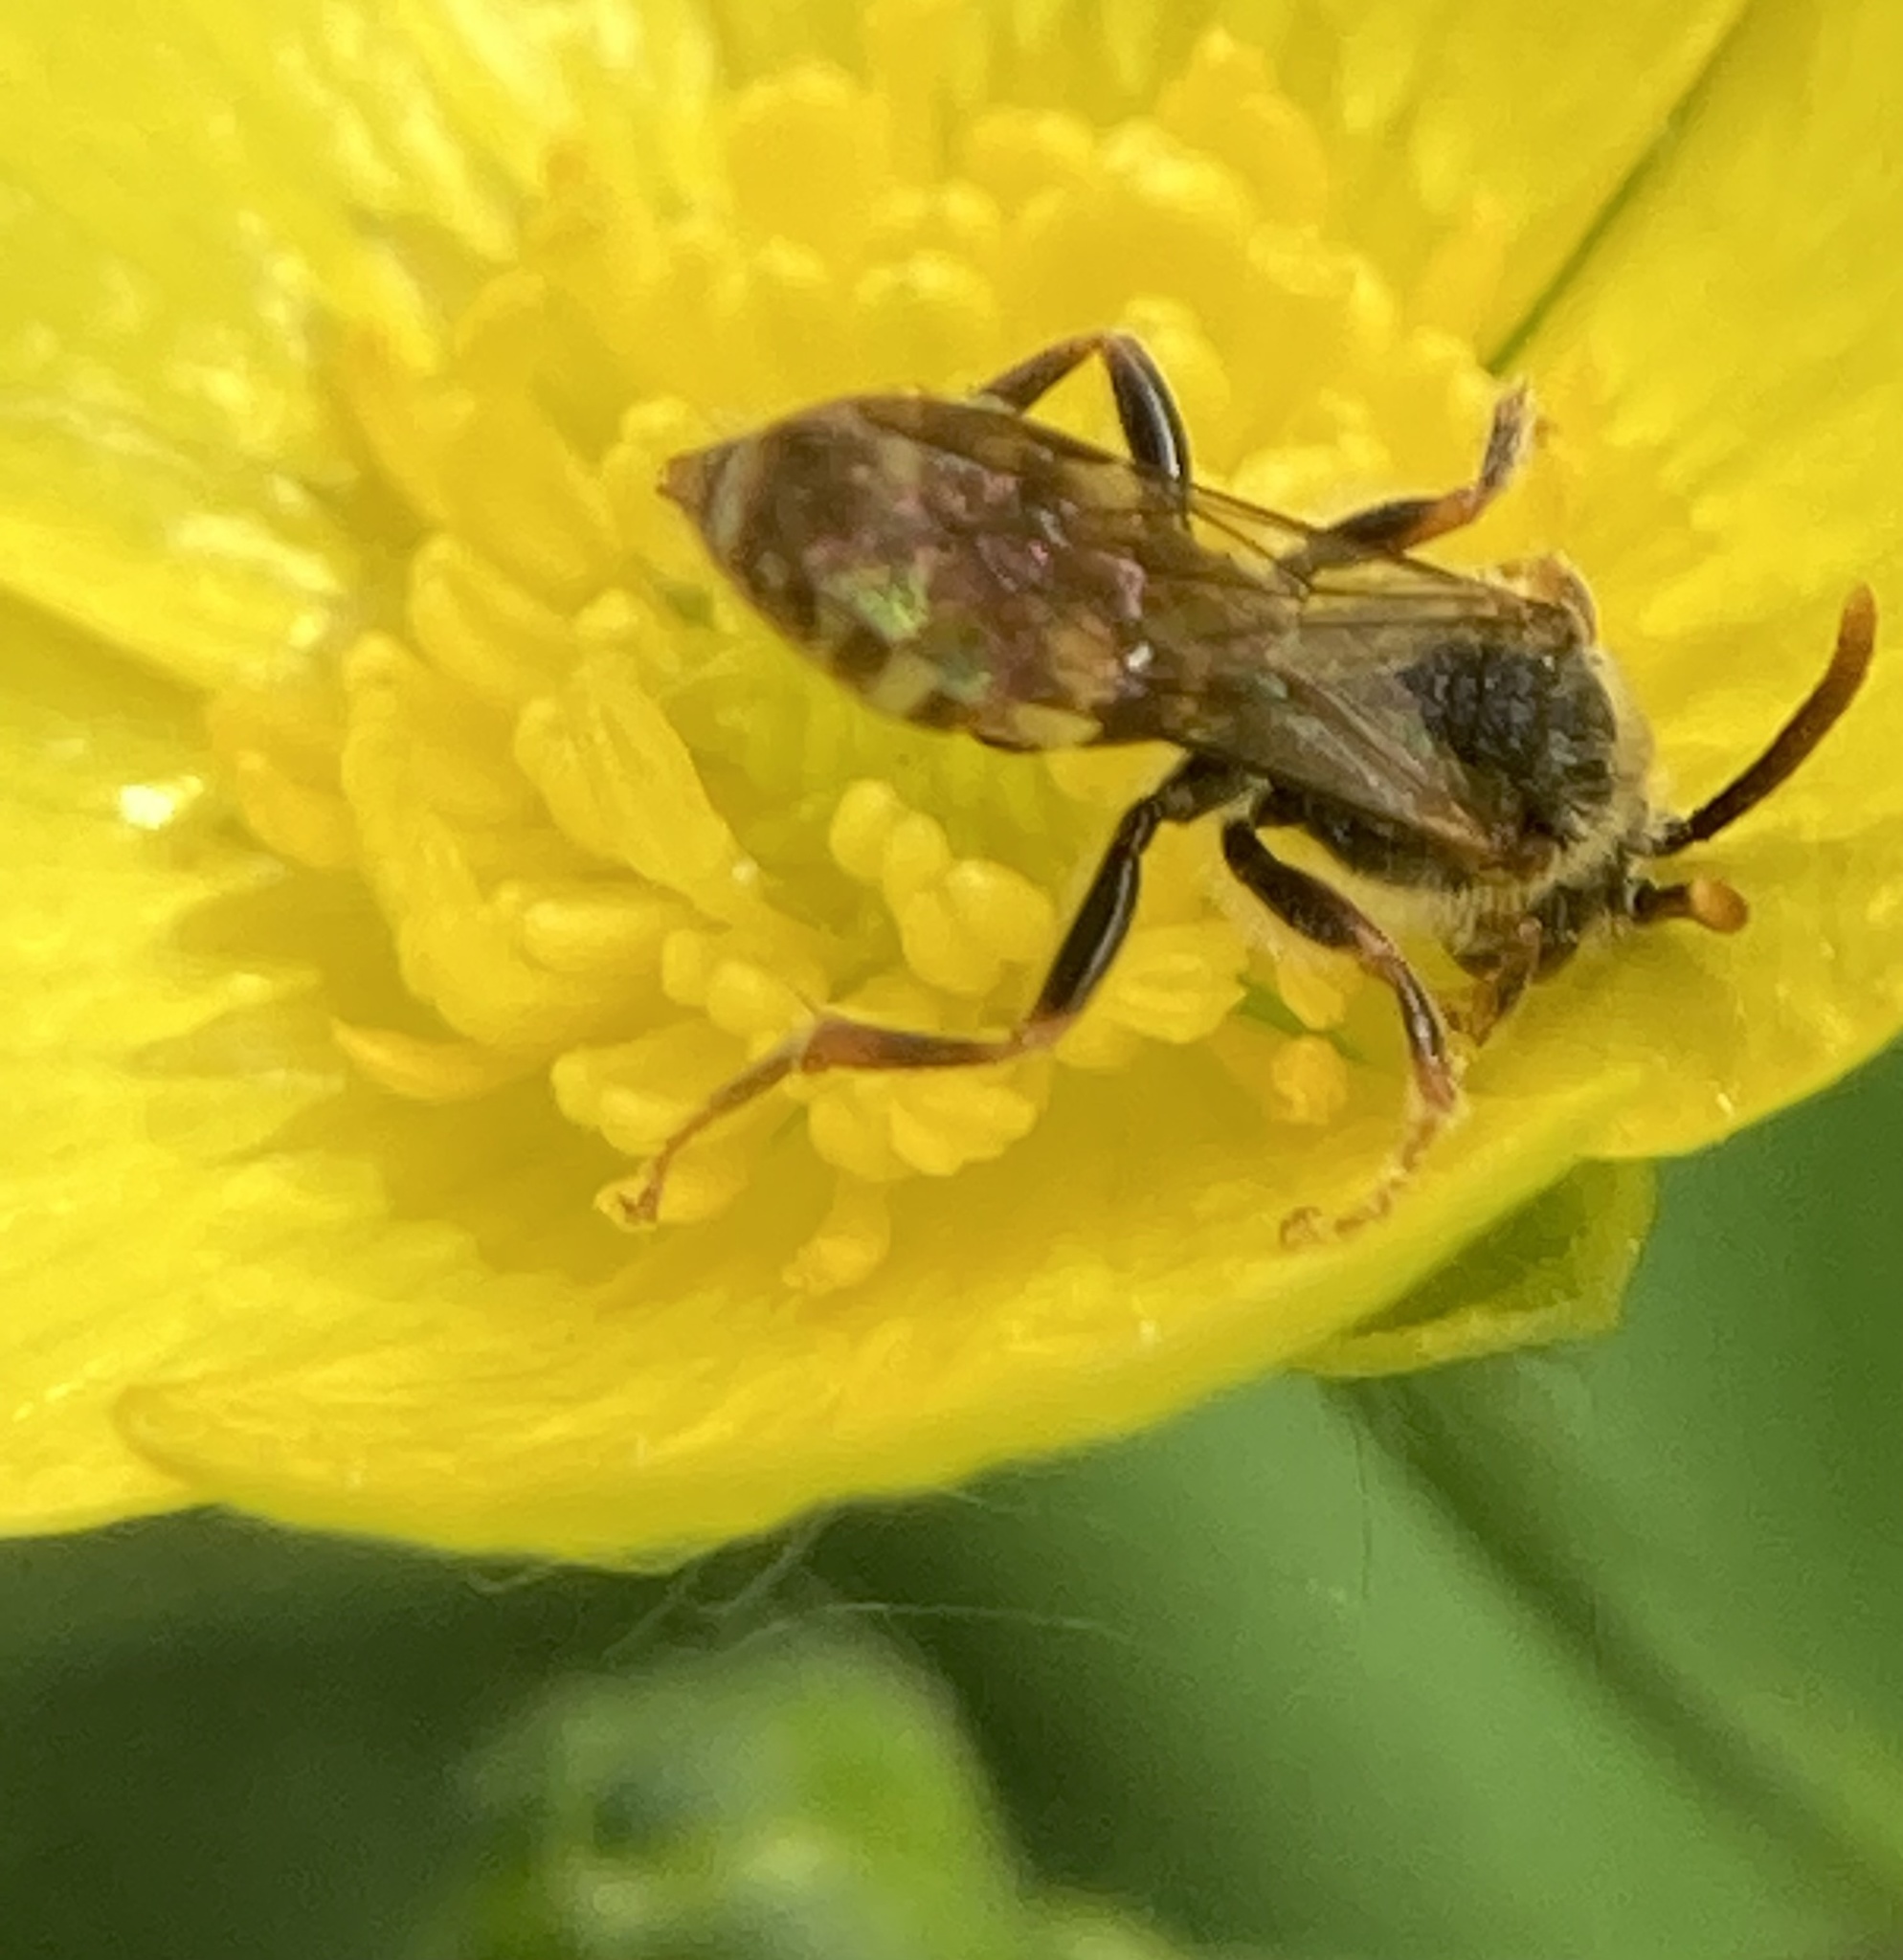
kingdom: Animalia
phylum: Arthropoda
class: Insecta
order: Hymenoptera
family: Apidae
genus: Nomada
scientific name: Nomada
